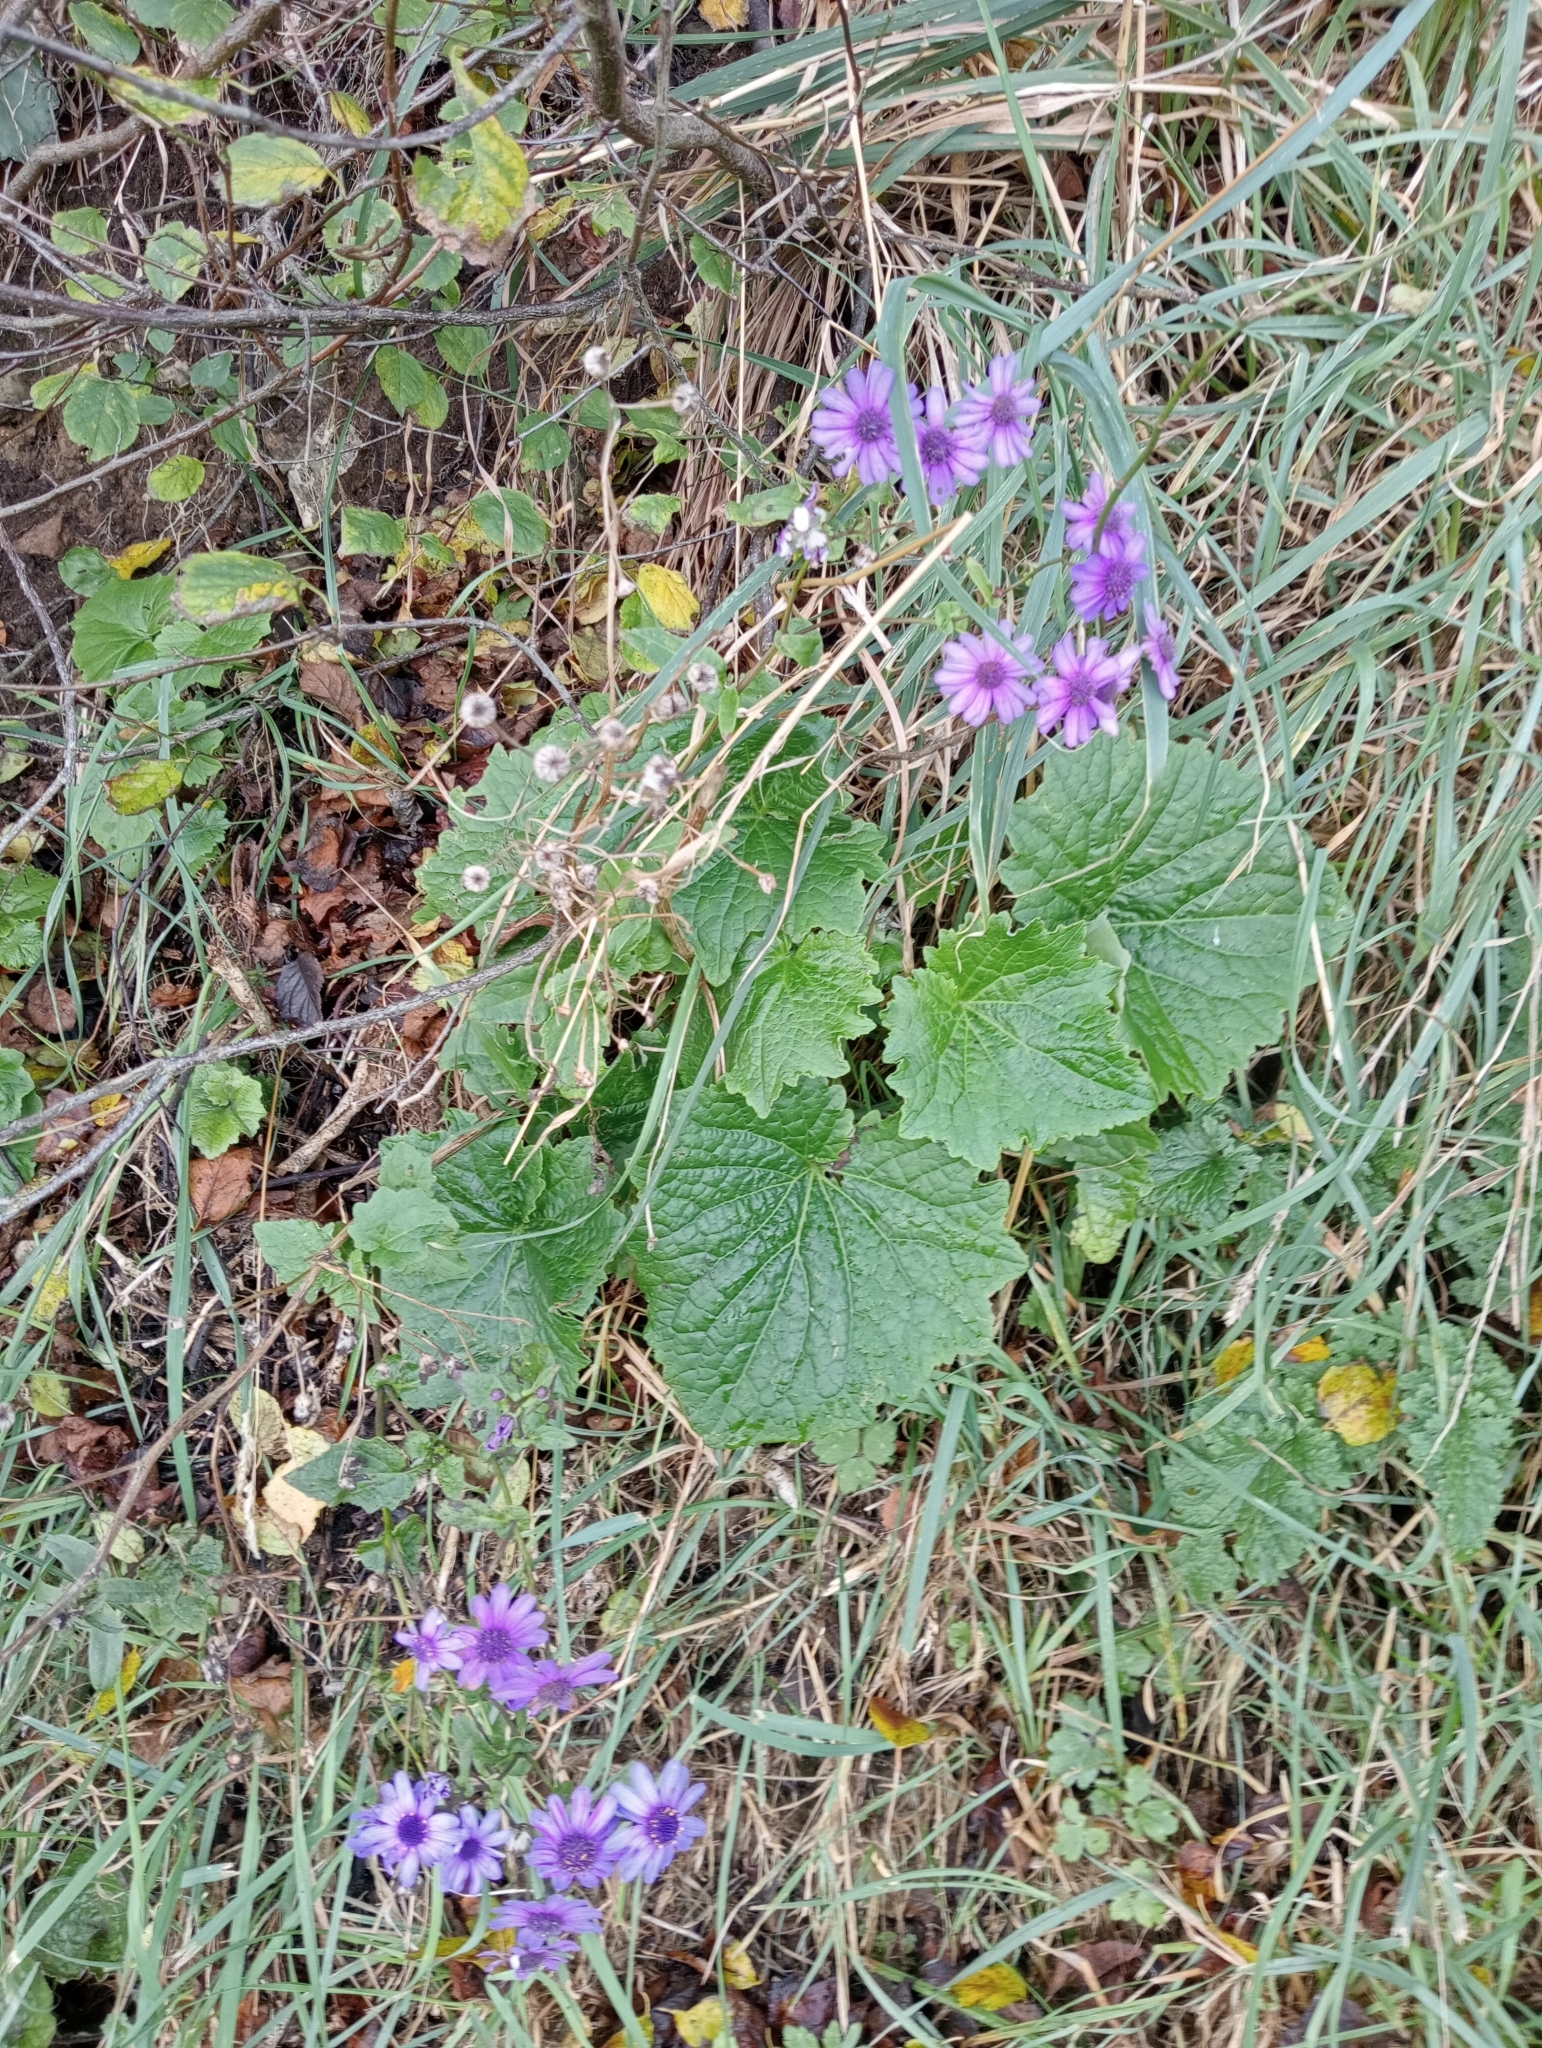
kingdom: Plantae
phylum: Tracheophyta
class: Magnoliopsida
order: Asterales
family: Asteraceae
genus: Pericallis
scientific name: Pericallis hybrida
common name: Cineraria
